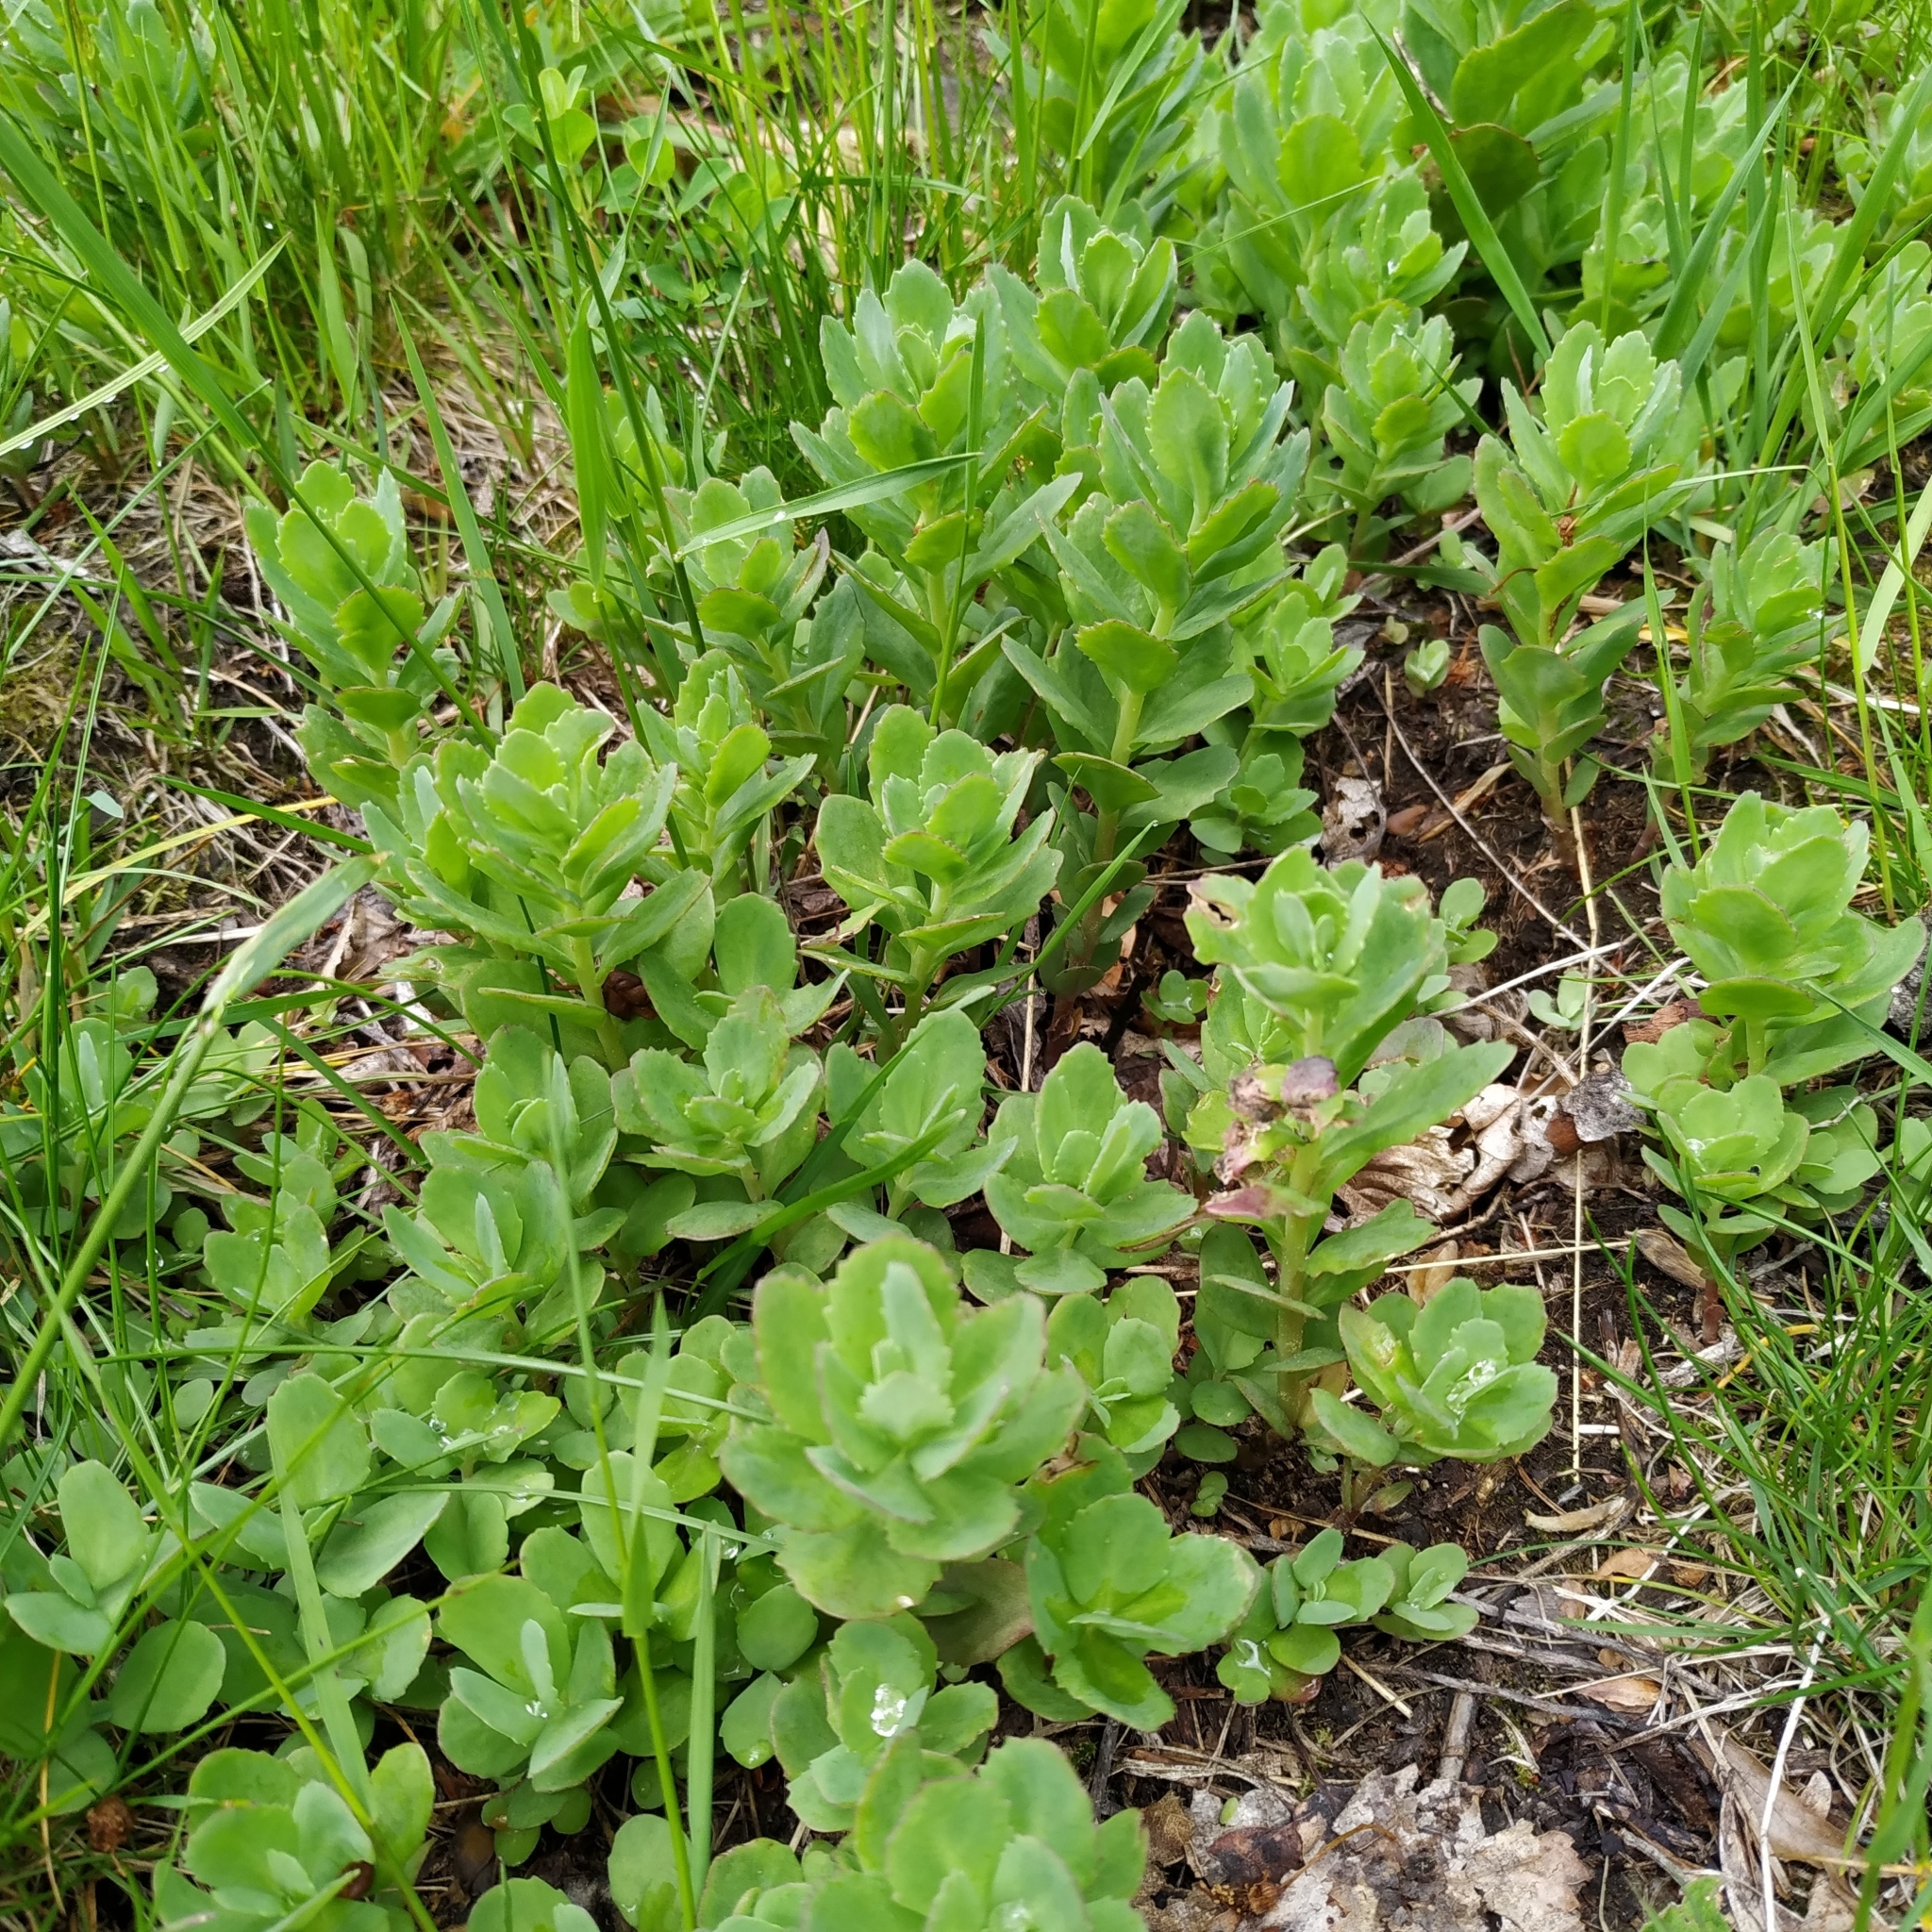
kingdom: Plantae
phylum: Tracheophyta
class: Magnoliopsida
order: Saxifragales
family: Crassulaceae
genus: Hylotelephium
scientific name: Hylotelephium telephium
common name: Live-forever
